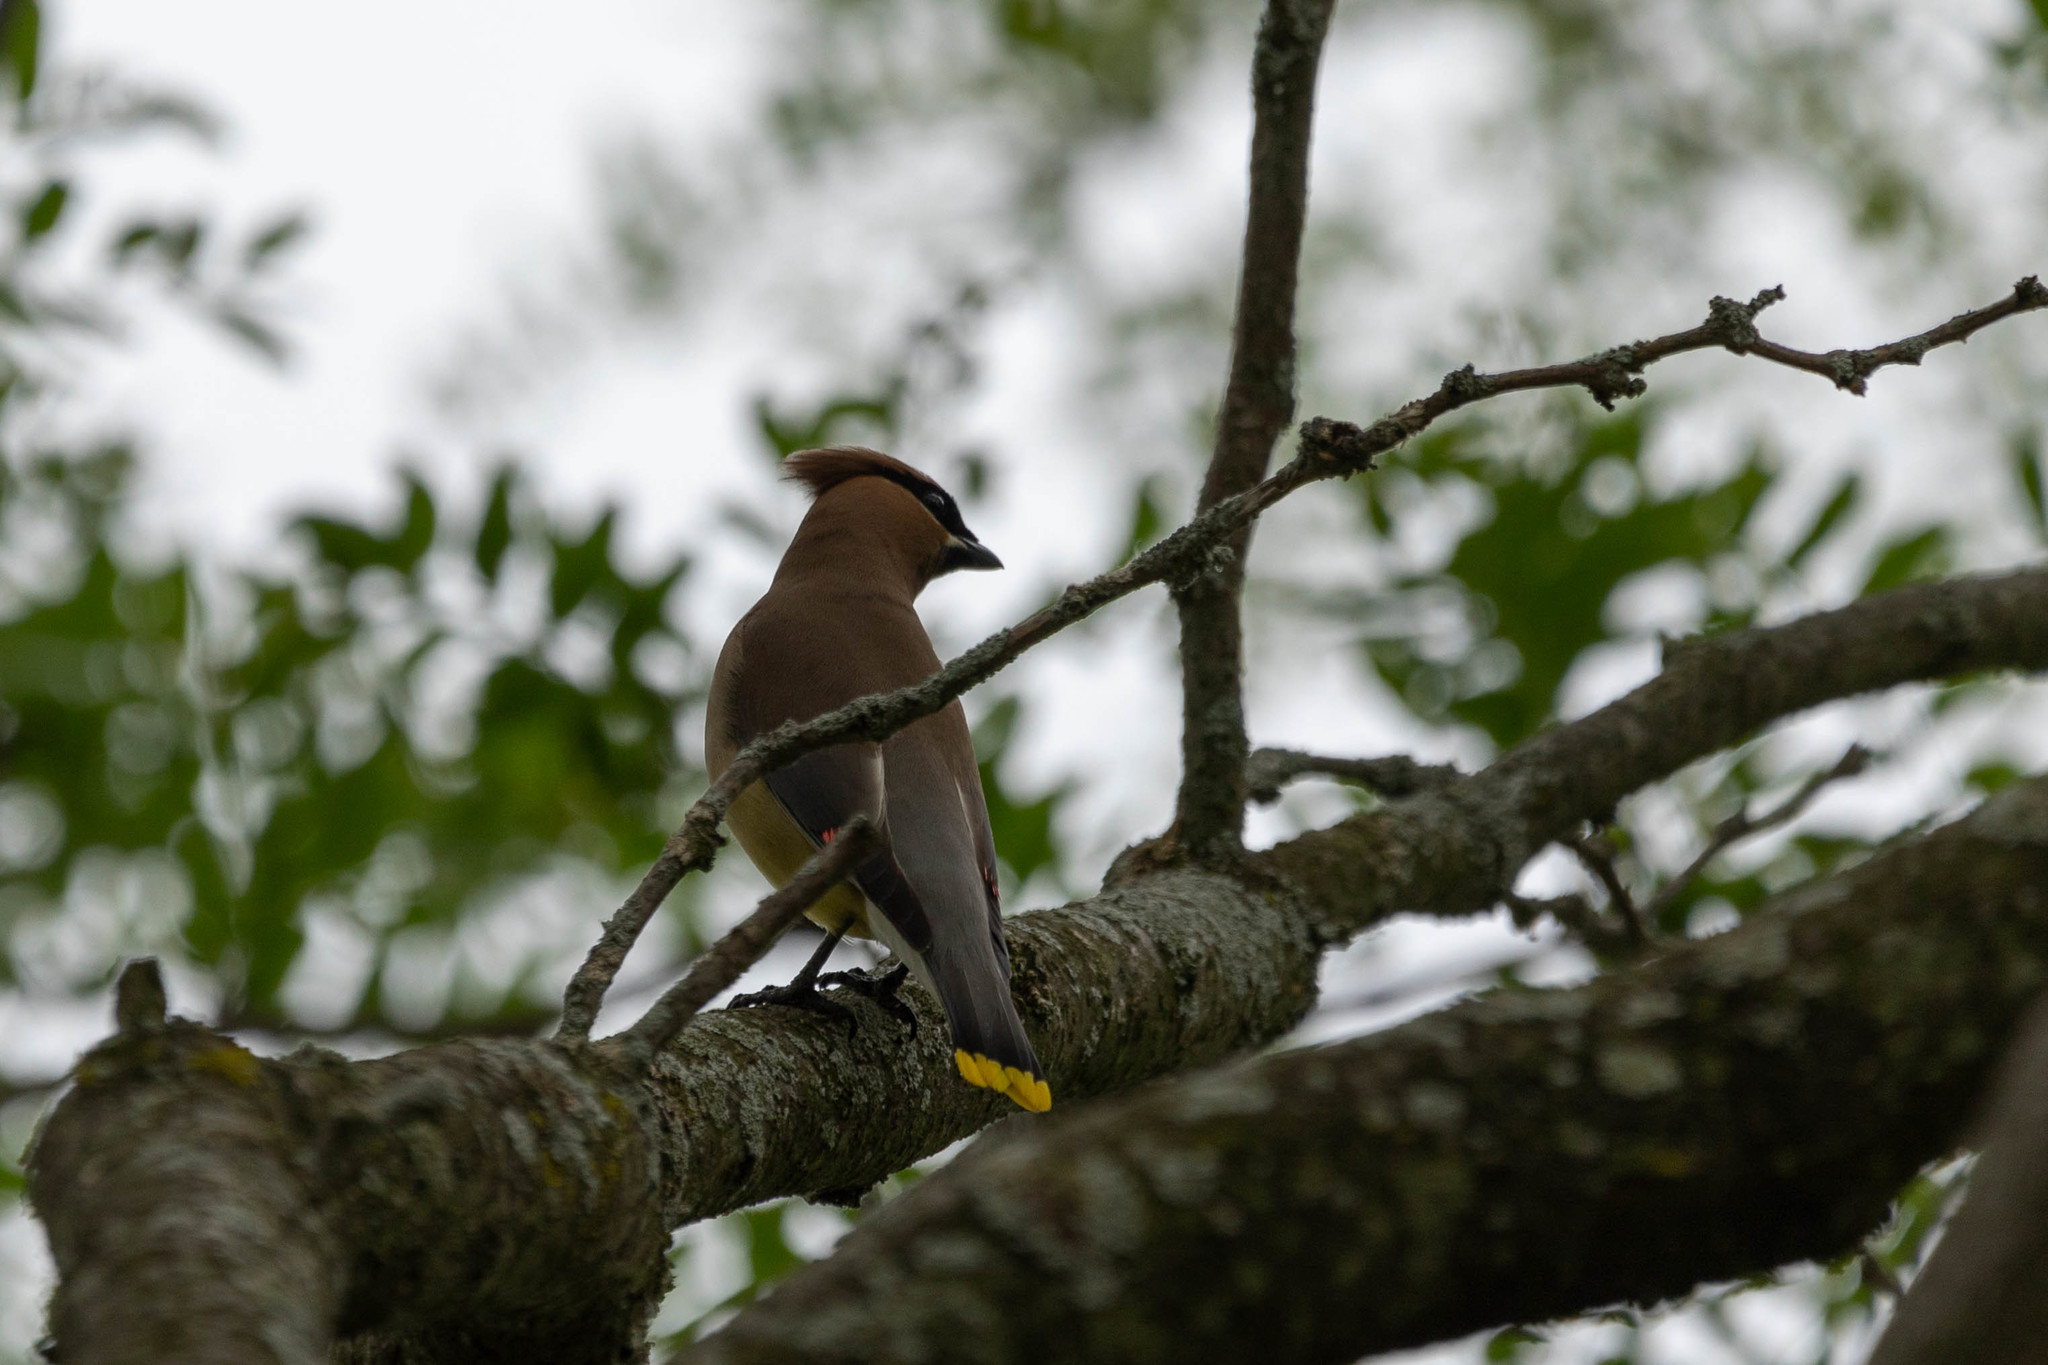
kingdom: Animalia
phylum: Chordata
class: Aves
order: Passeriformes
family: Bombycillidae
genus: Bombycilla
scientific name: Bombycilla cedrorum
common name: Cedar waxwing
